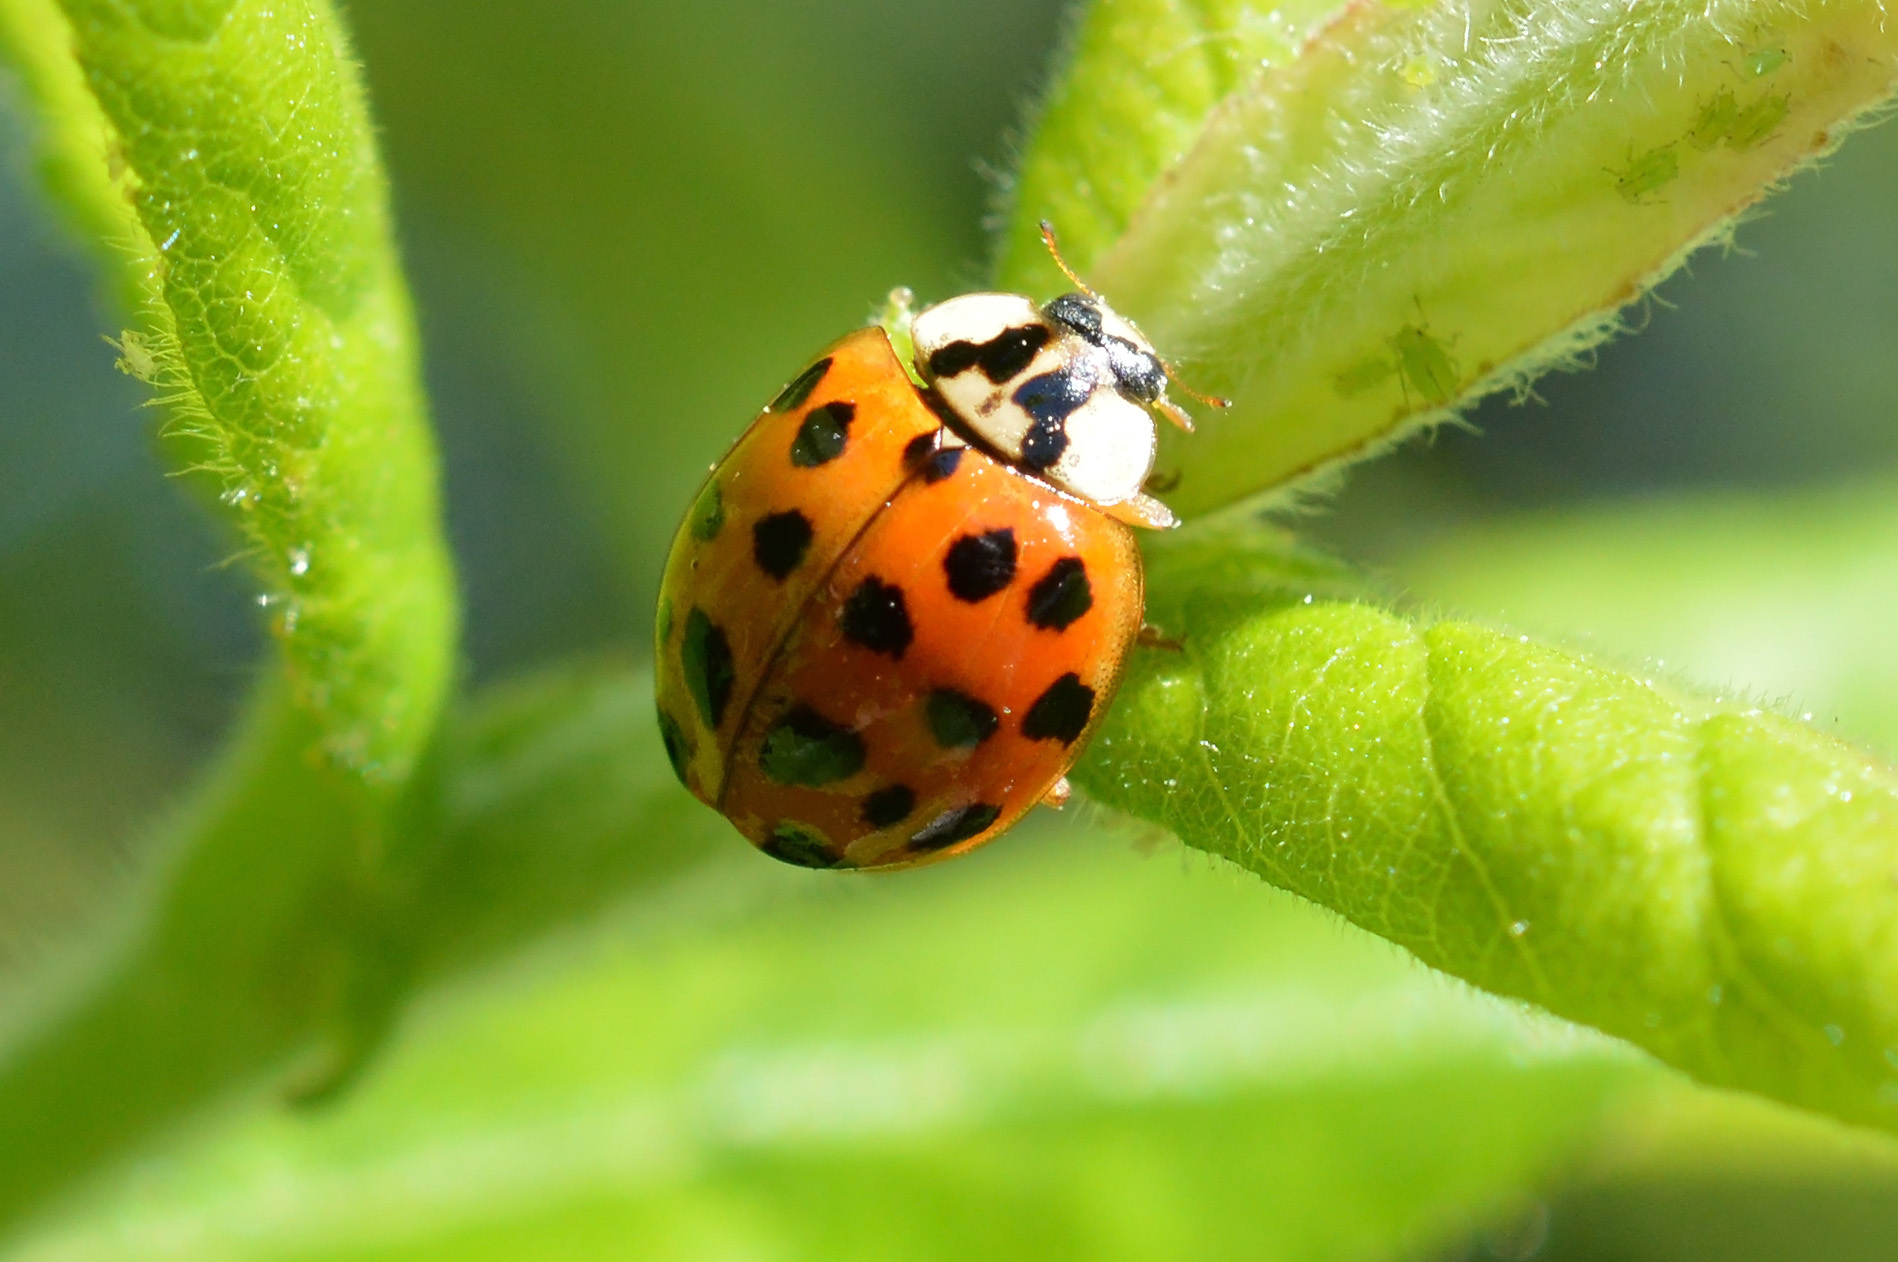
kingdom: Animalia
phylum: Arthropoda
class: Insecta
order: Coleoptera
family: Coccinellidae
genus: Harmonia
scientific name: Harmonia axyridis
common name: Harlequin ladybird
